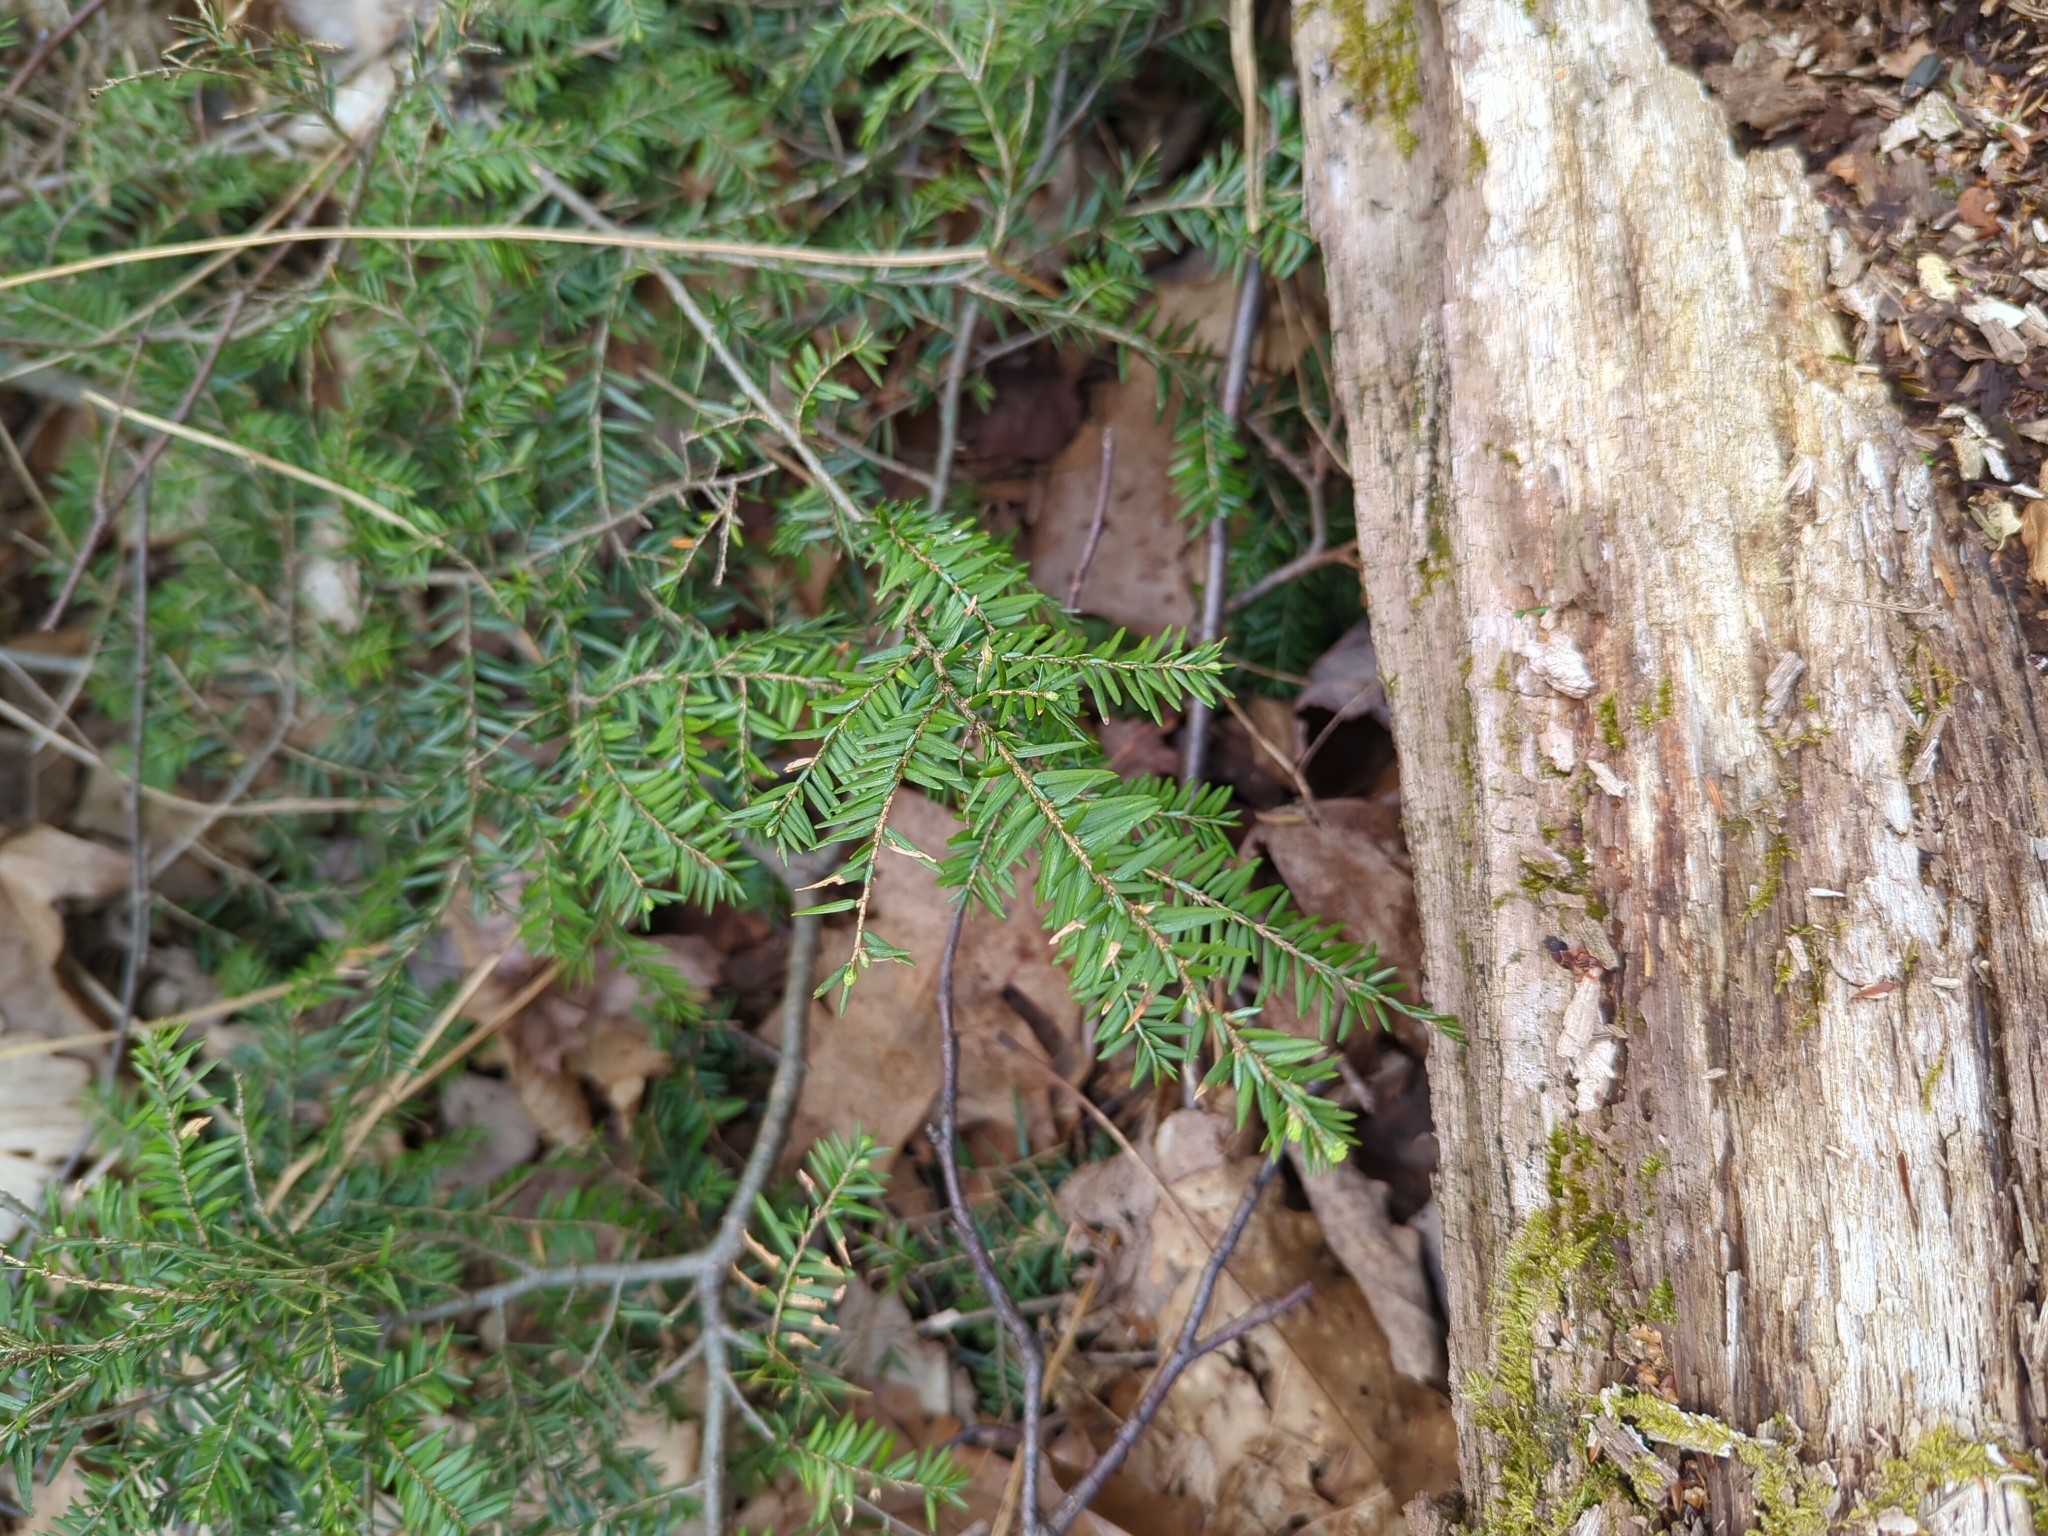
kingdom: Plantae
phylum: Tracheophyta
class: Pinopsida
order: Pinales
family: Pinaceae
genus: Tsuga
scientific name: Tsuga canadensis
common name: Eastern hemlock
